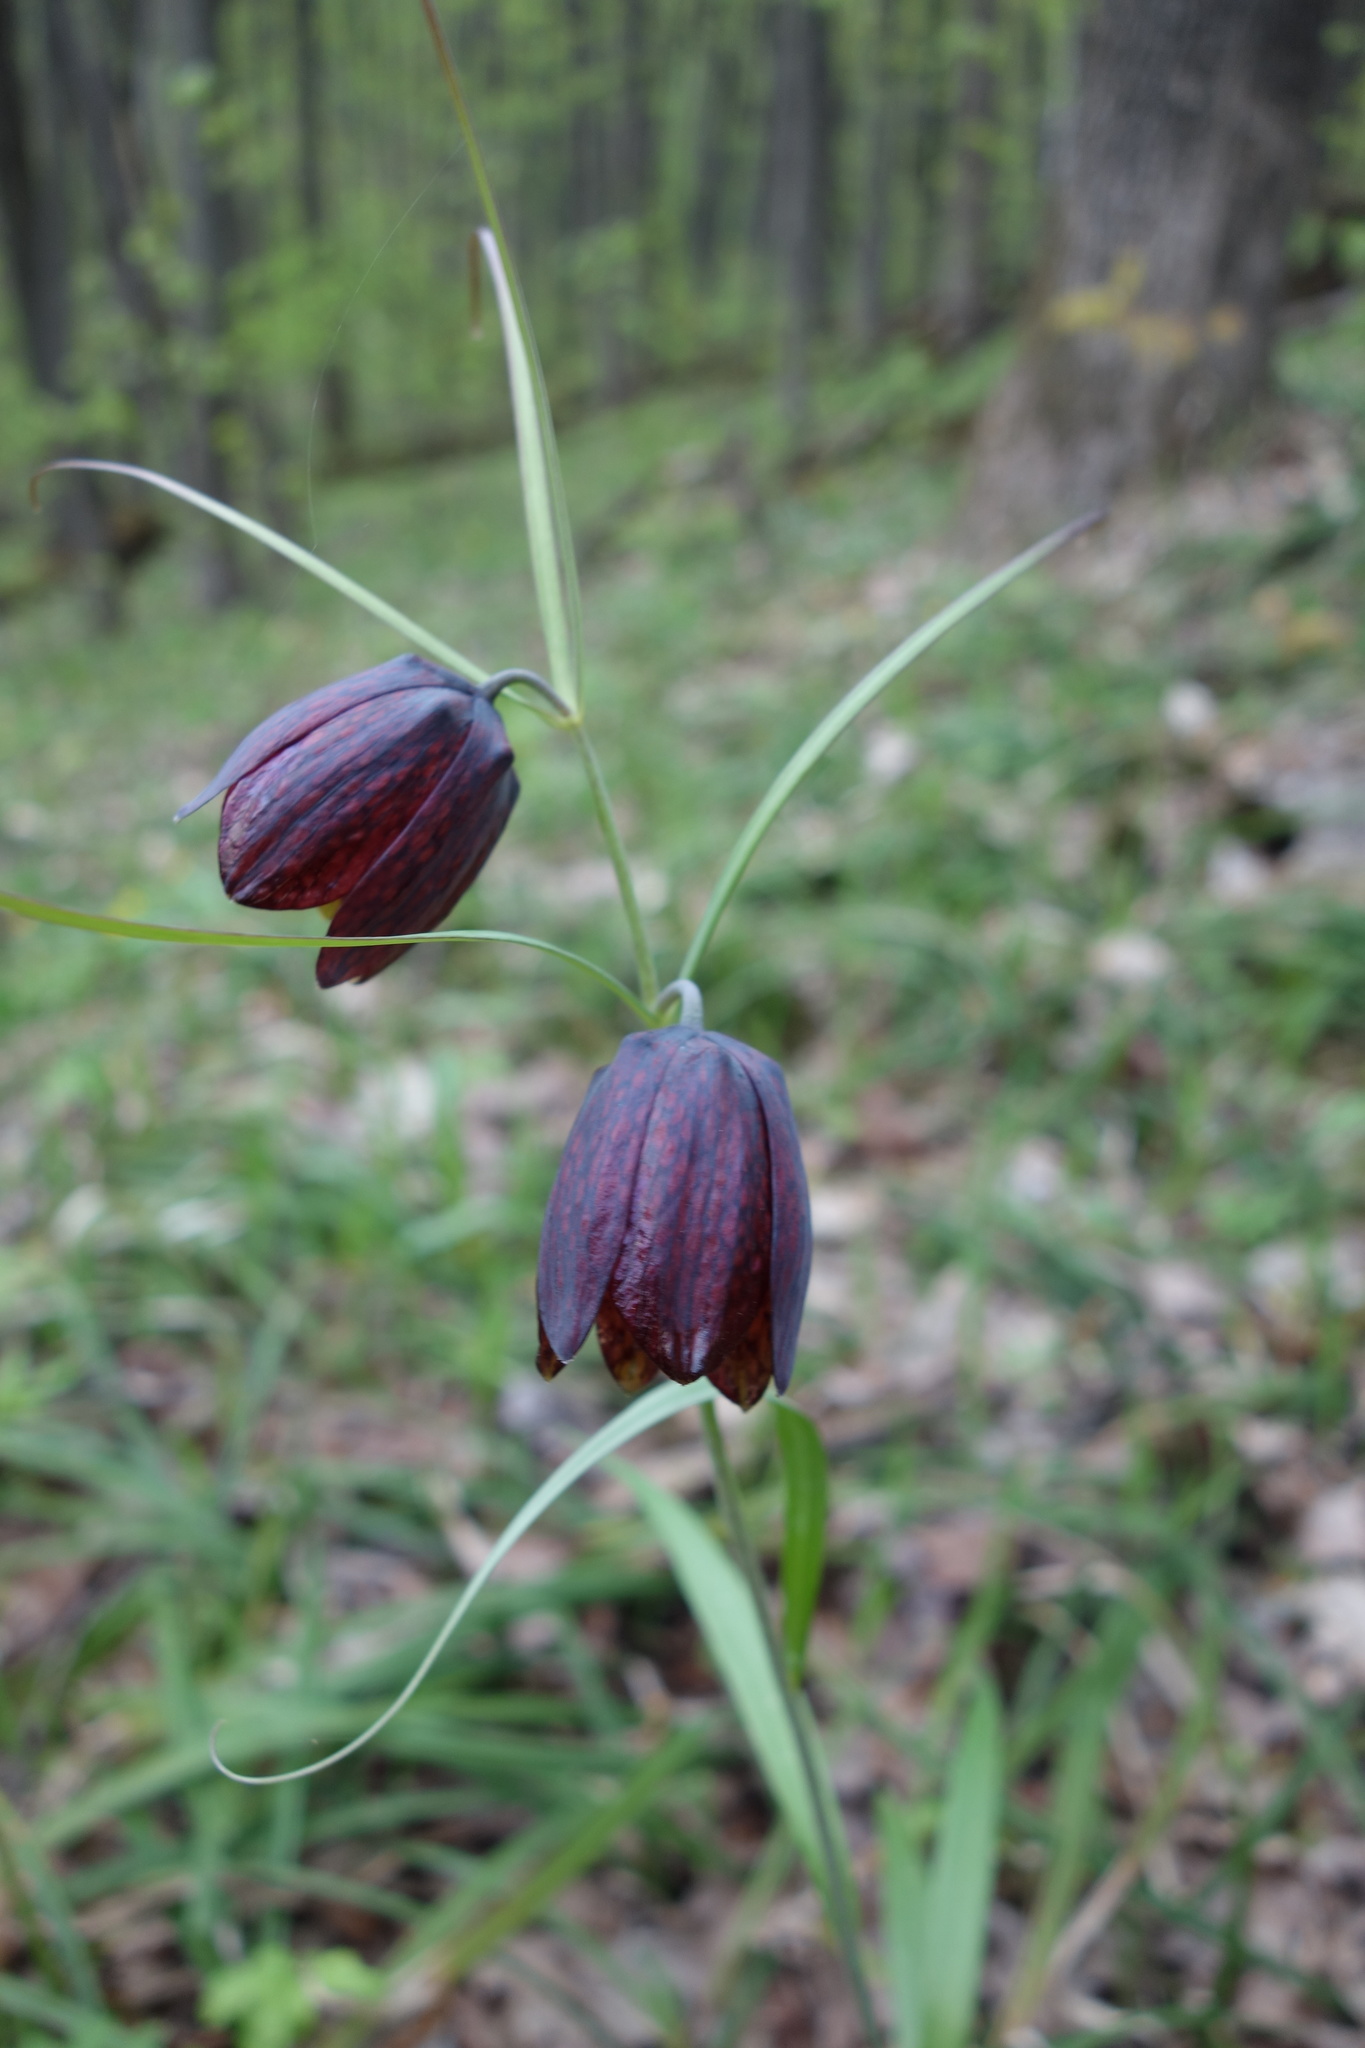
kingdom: Plantae
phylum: Tracheophyta
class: Liliopsida
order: Liliales
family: Liliaceae
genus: Fritillaria
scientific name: Fritillaria ruthenica
